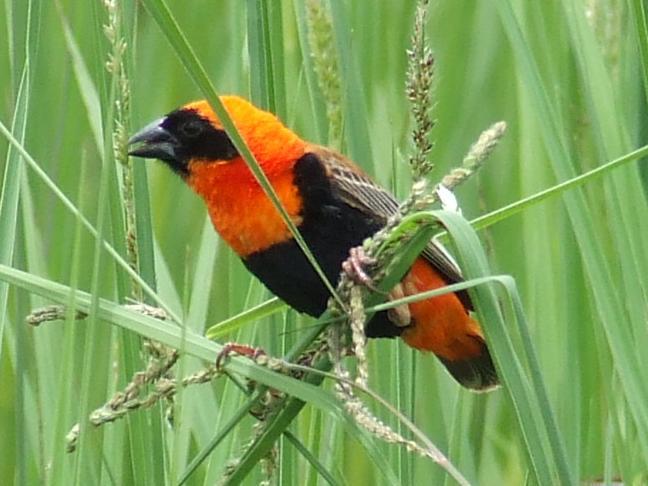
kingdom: Animalia
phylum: Chordata
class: Aves
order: Passeriformes
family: Ploceidae
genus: Euplectes
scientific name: Euplectes orix
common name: Southern red bishop
